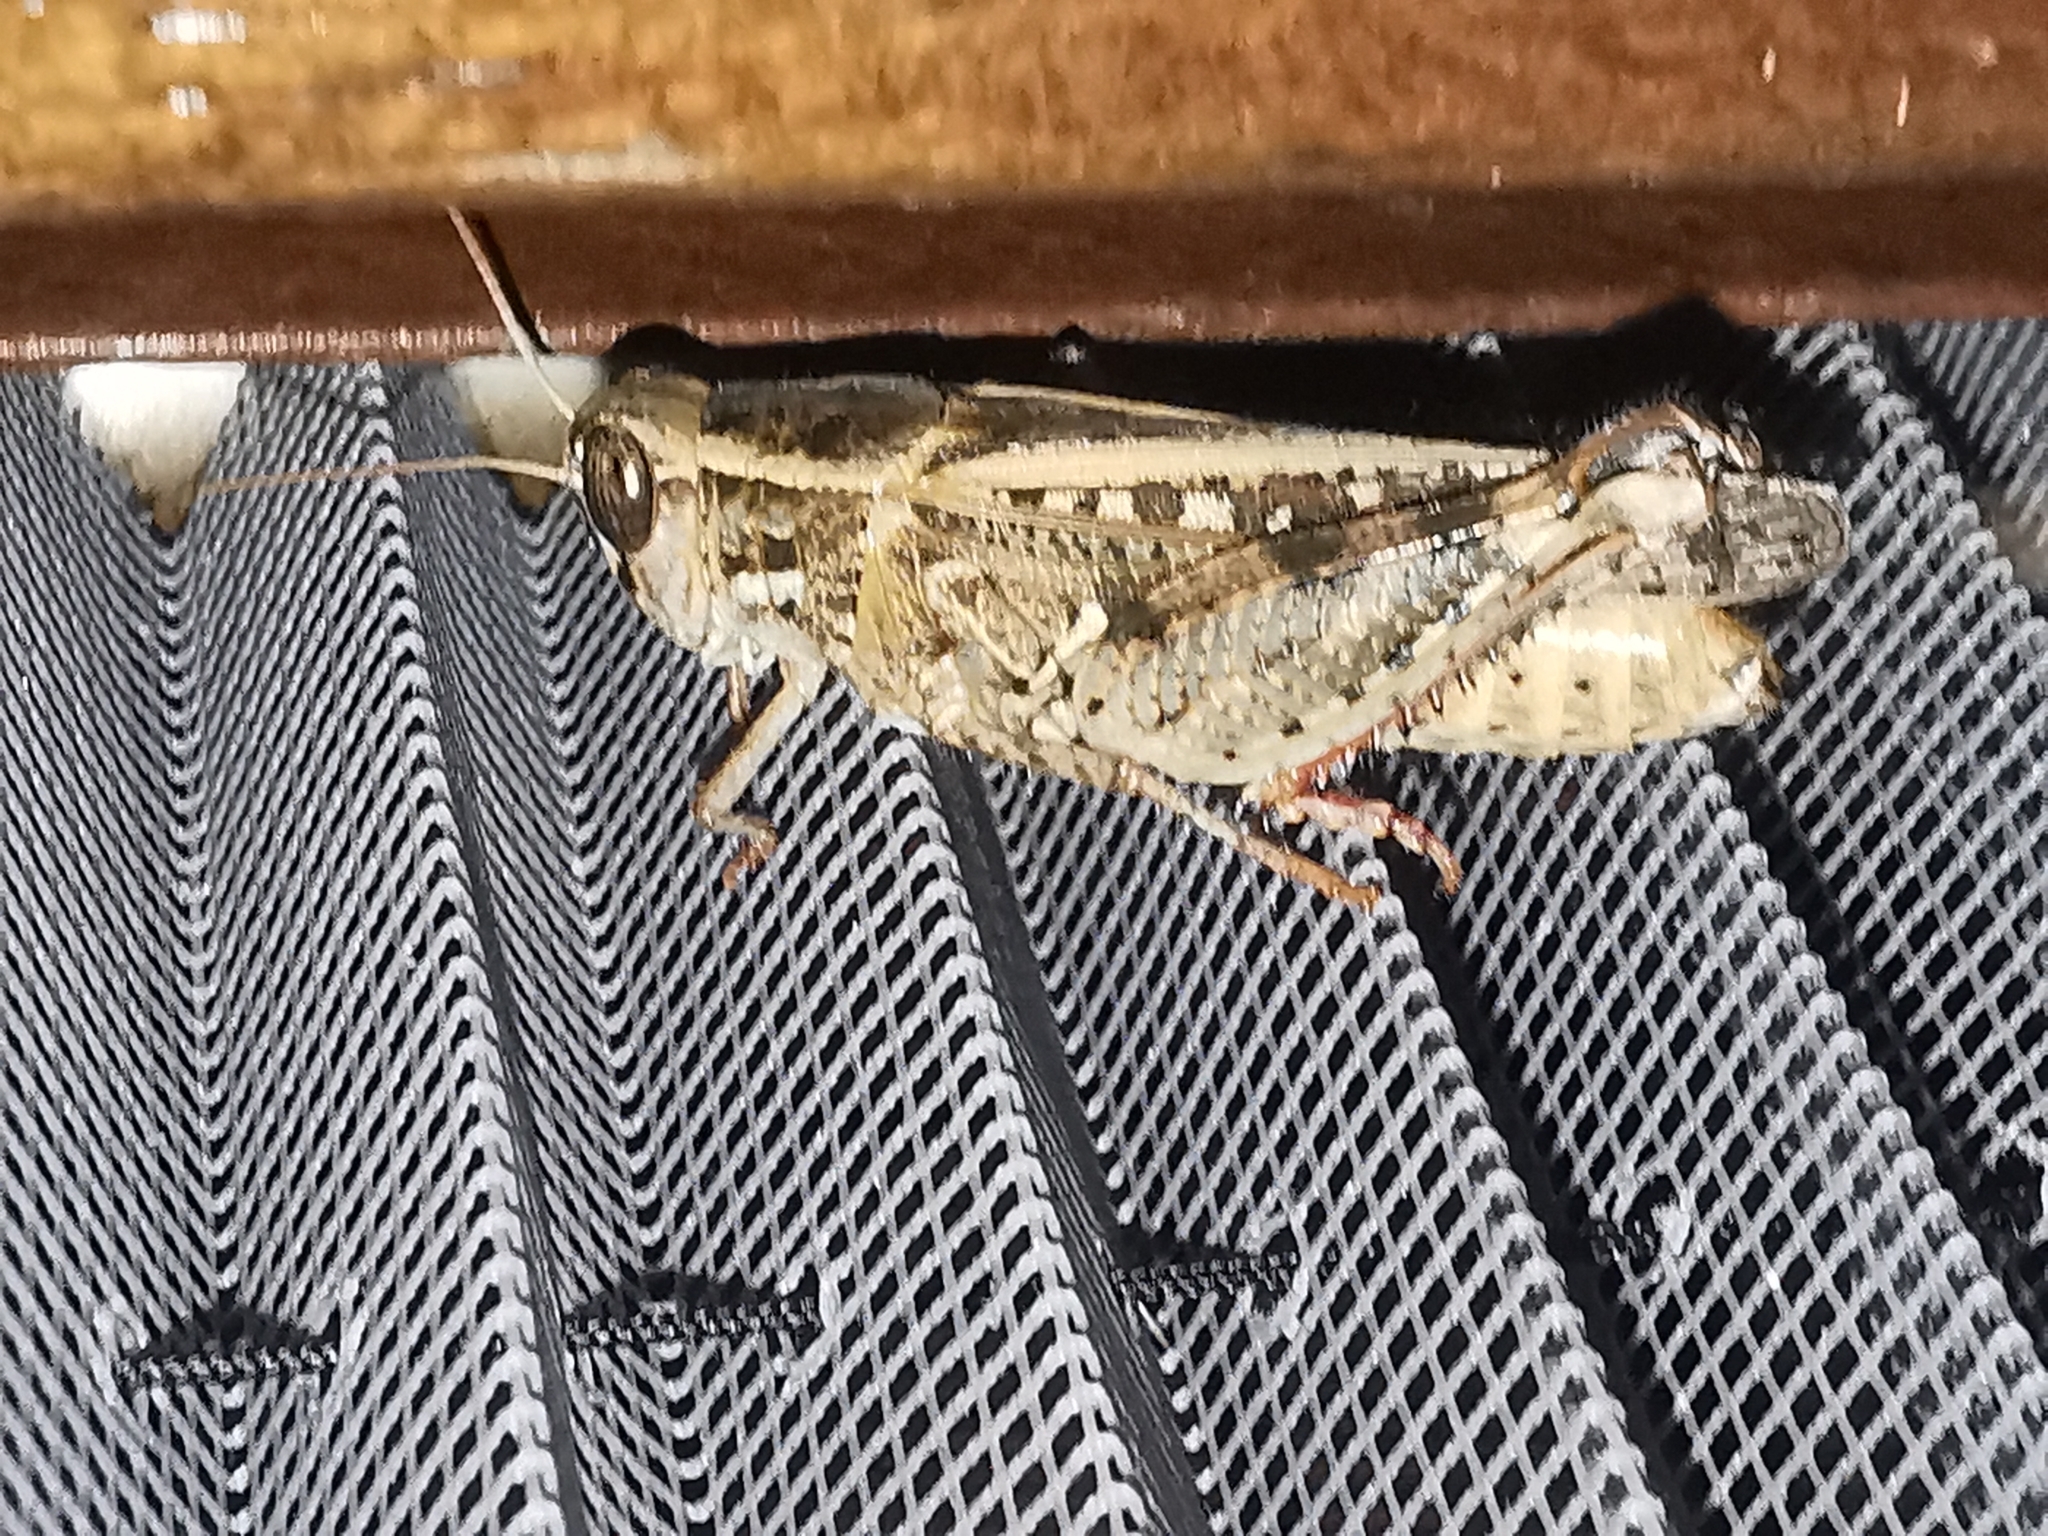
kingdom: Animalia
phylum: Arthropoda
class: Insecta
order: Orthoptera
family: Acrididae
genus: Calliptamus
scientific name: Calliptamus
